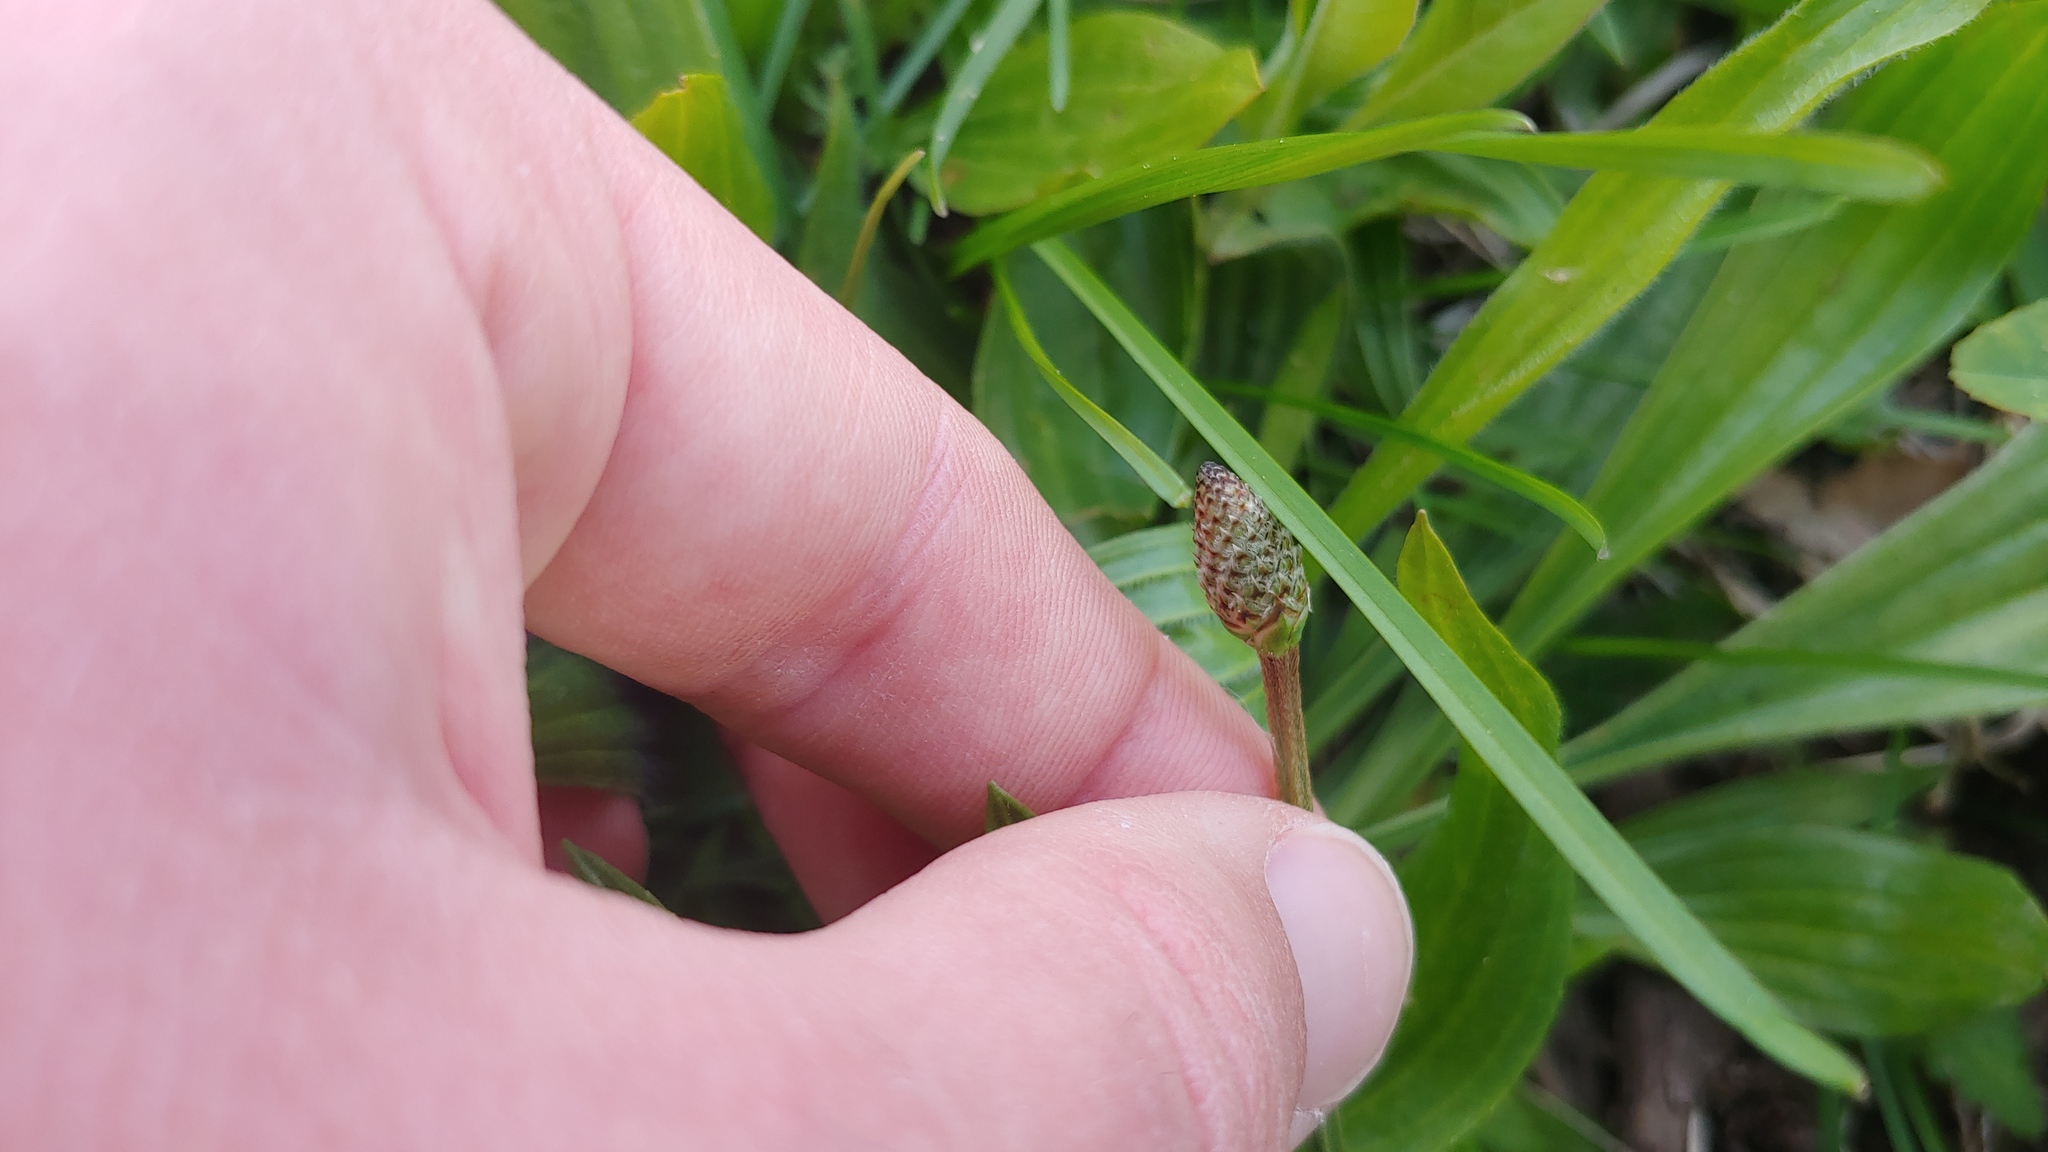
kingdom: Plantae
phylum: Tracheophyta
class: Magnoliopsida
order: Lamiales
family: Plantaginaceae
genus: Plantago
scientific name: Plantago lanceolata
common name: Ribwort plantain
